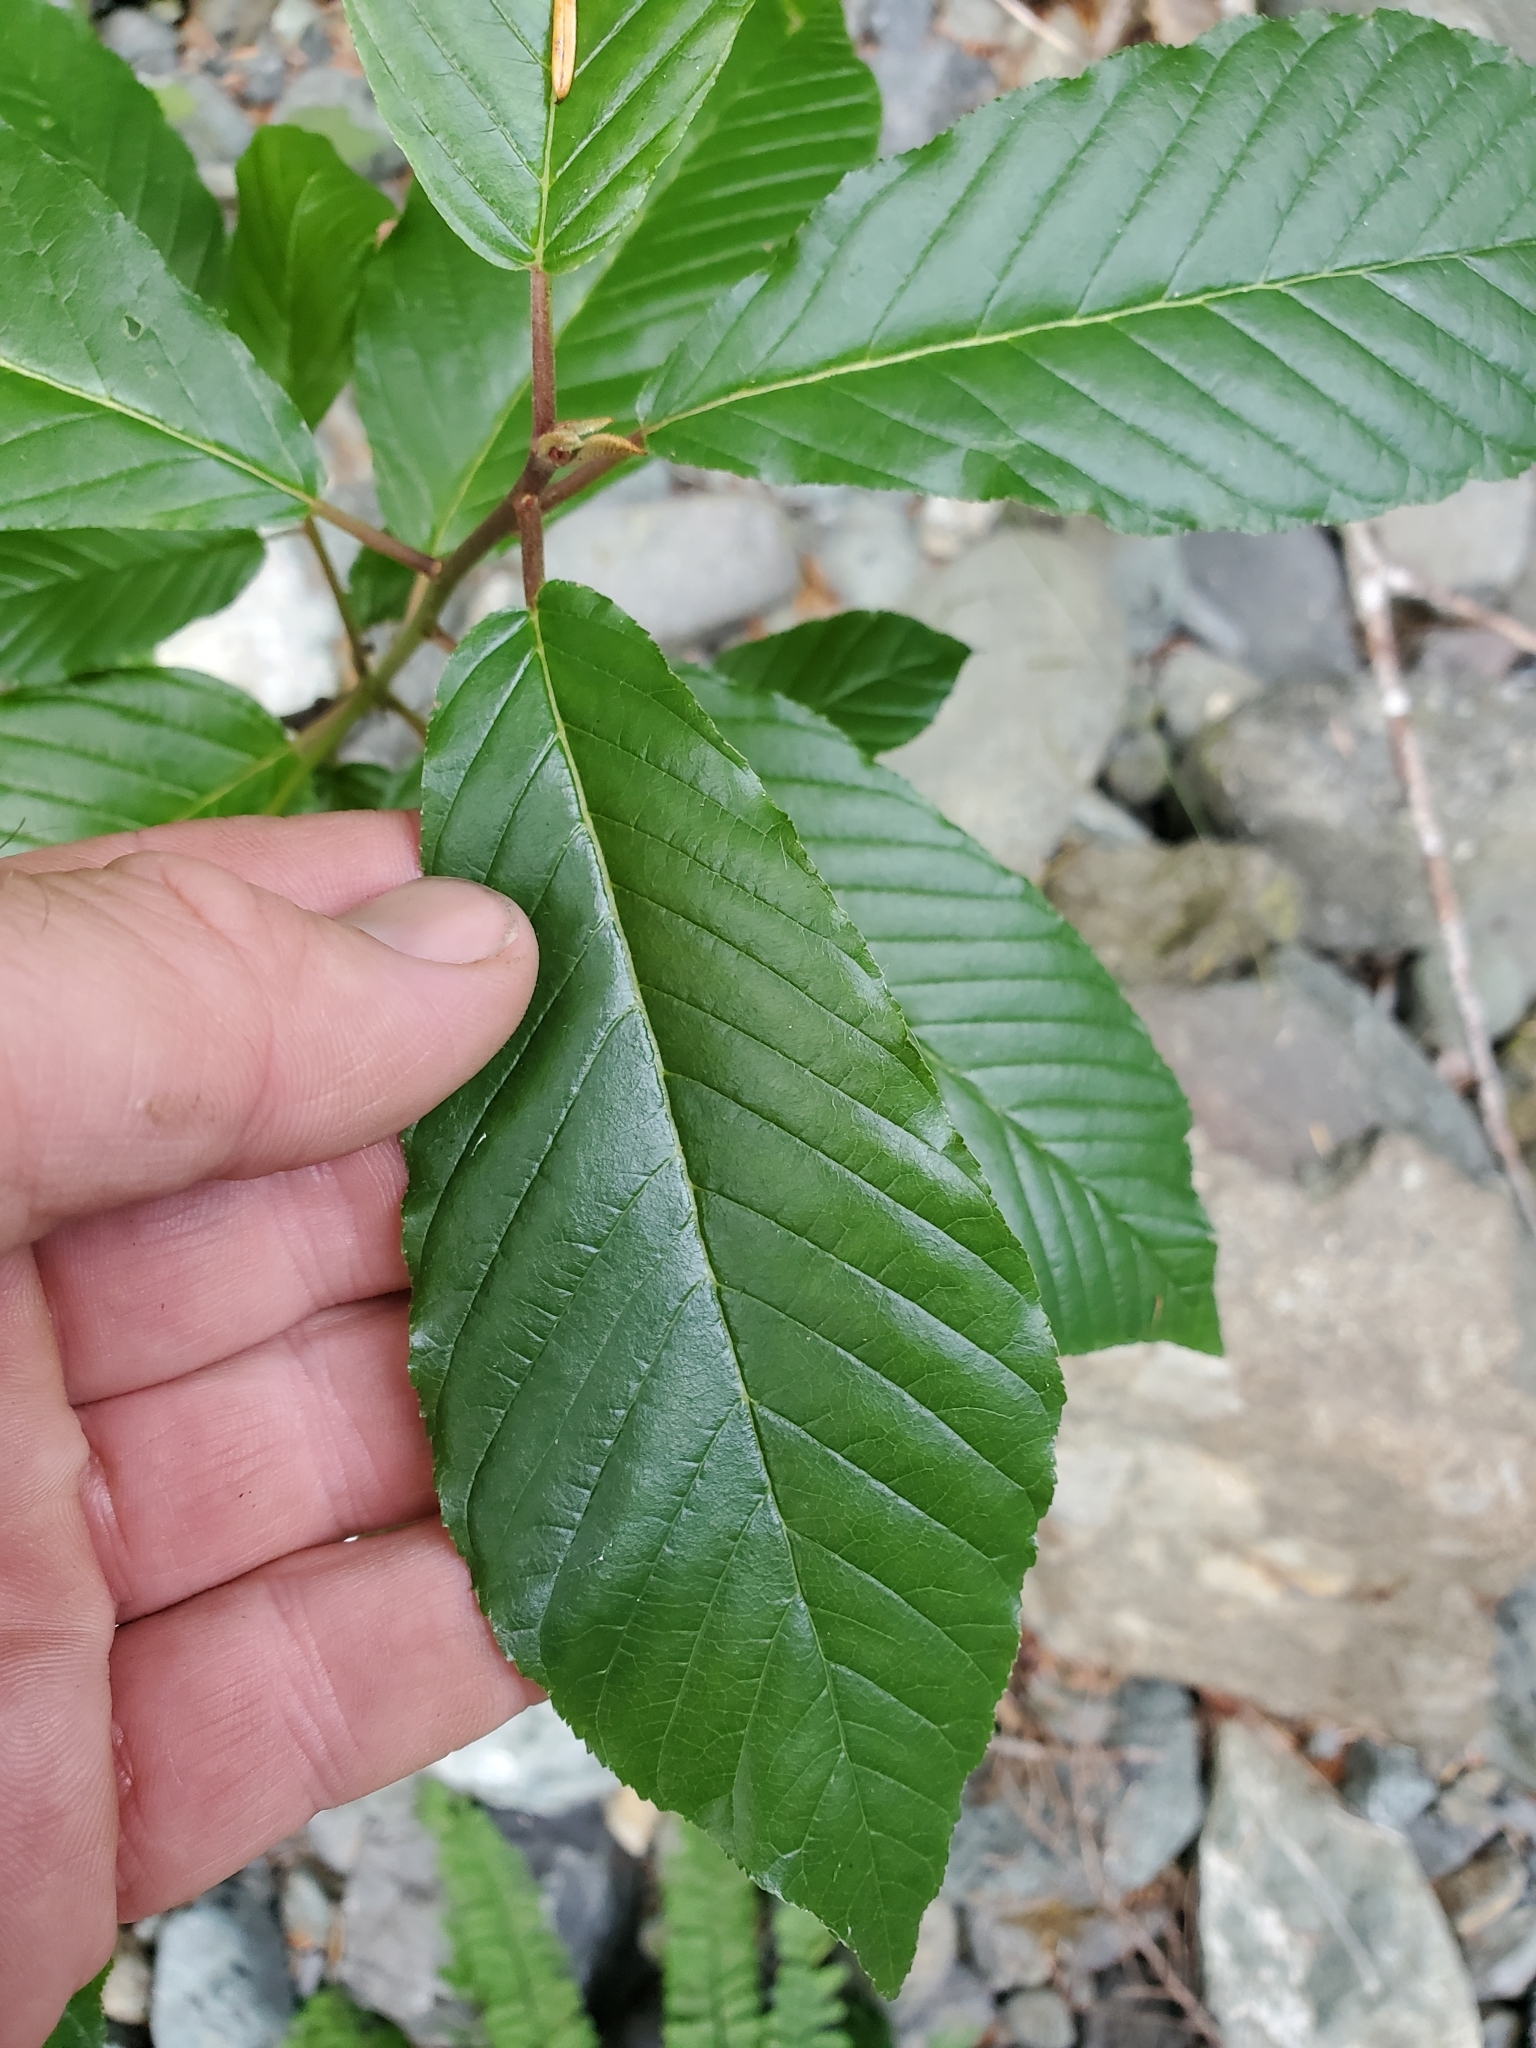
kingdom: Plantae
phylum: Tracheophyta
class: Magnoliopsida
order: Rosales
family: Rhamnaceae
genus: Frangula
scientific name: Frangula purshiana
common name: Cascara buckthorn
